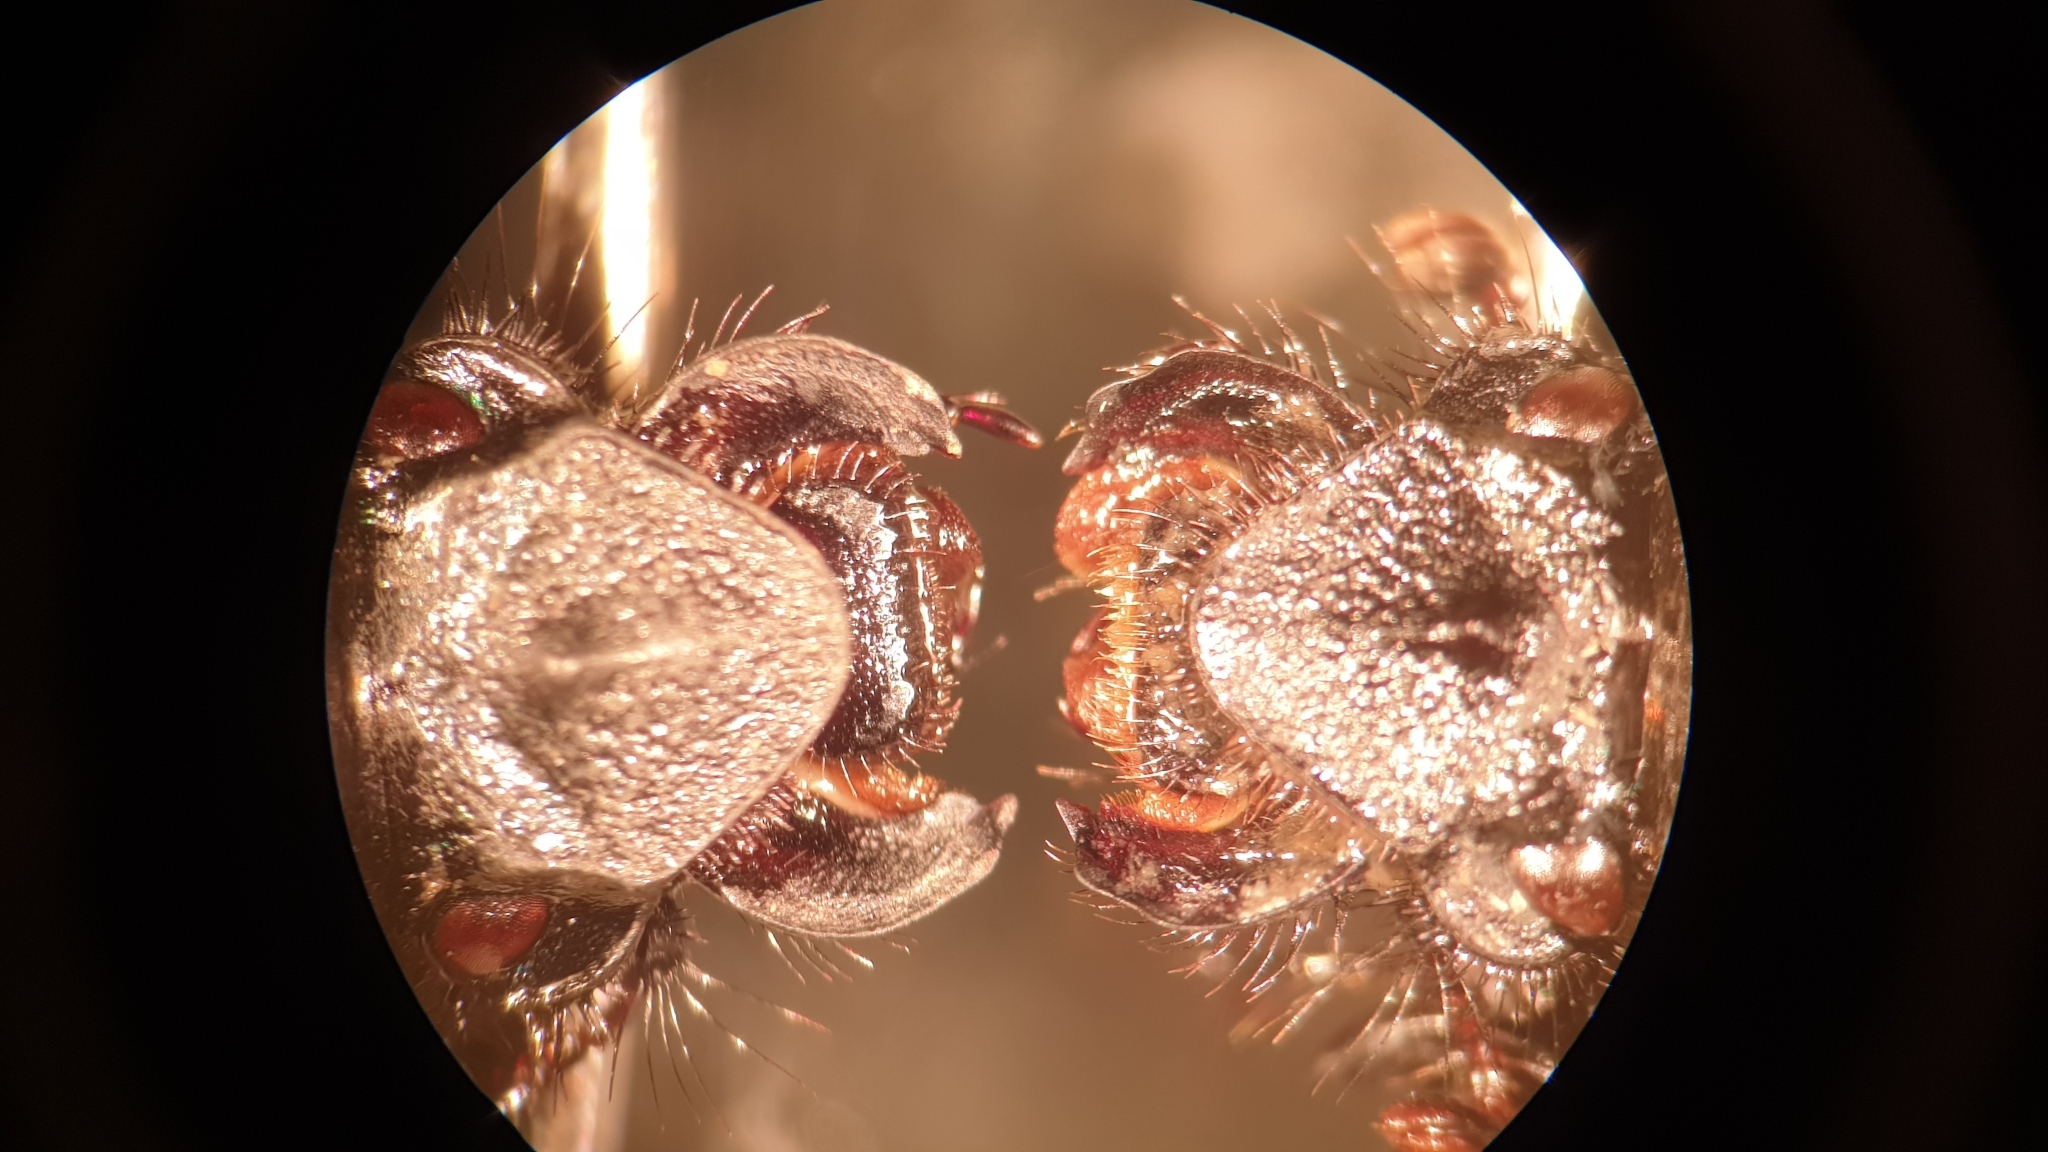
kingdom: Animalia
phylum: Arthropoda
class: Insecta
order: Coleoptera
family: Geotrupidae
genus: Geotrupes
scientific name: Geotrupes stercorarius
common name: Earth-boring dung beetle
